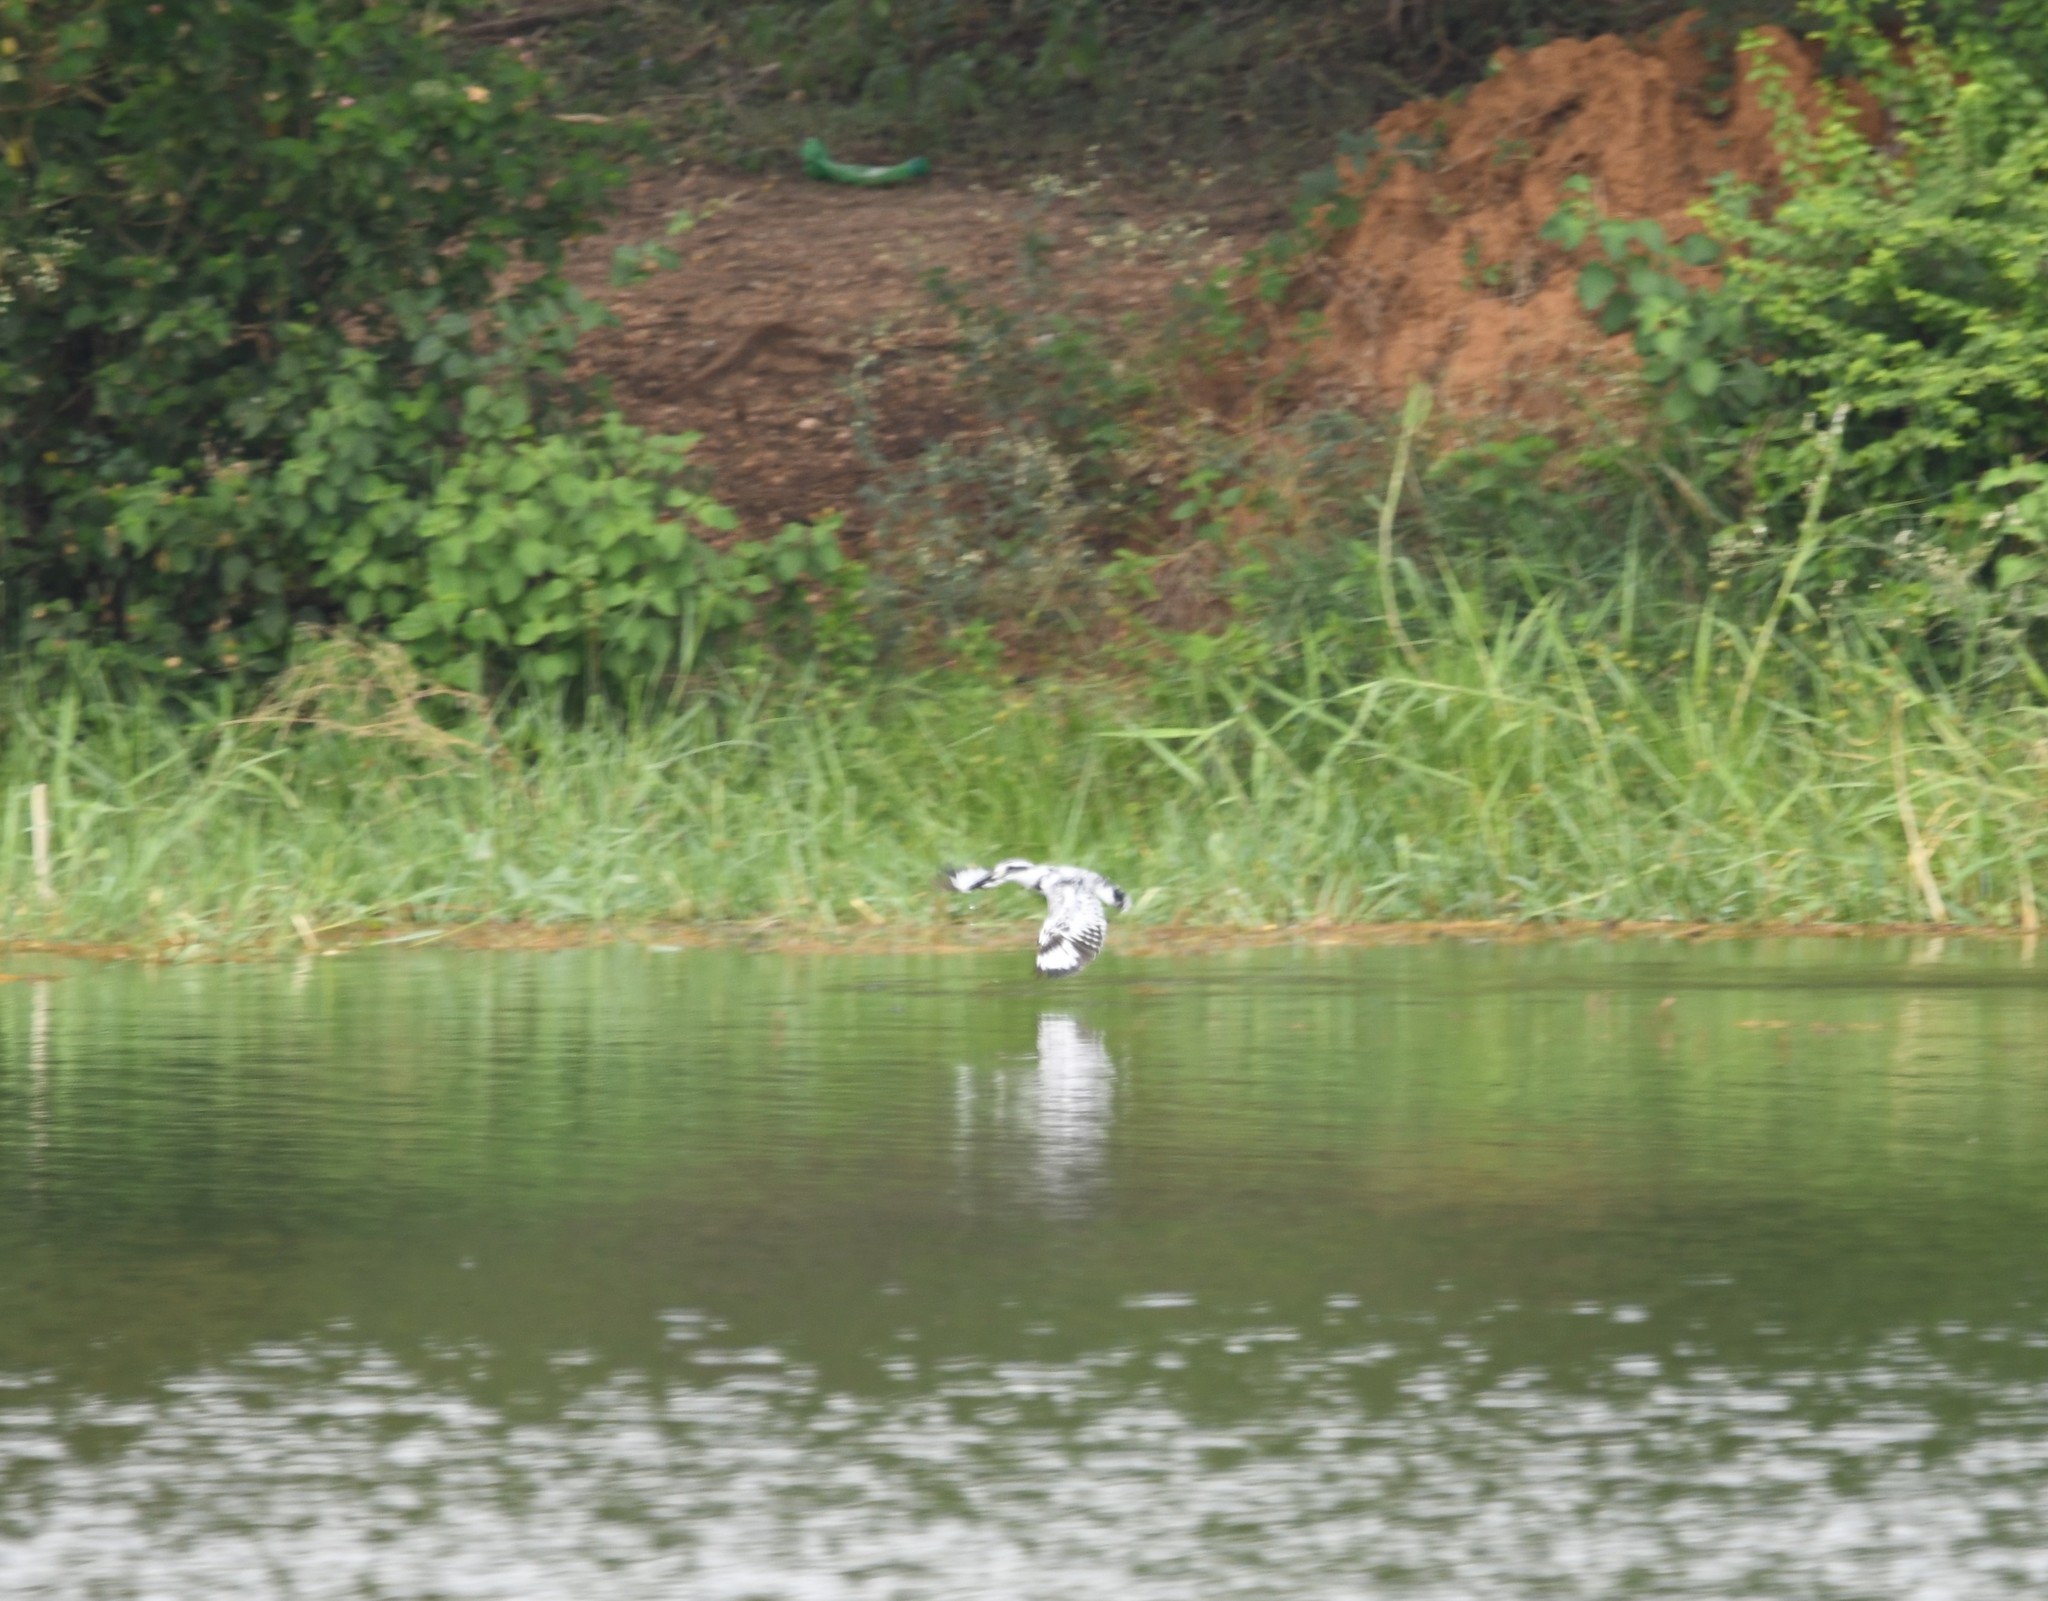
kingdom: Animalia
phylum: Chordata
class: Aves
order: Coraciiformes
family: Alcedinidae
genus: Ceryle
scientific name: Ceryle rudis
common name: Pied kingfisher
